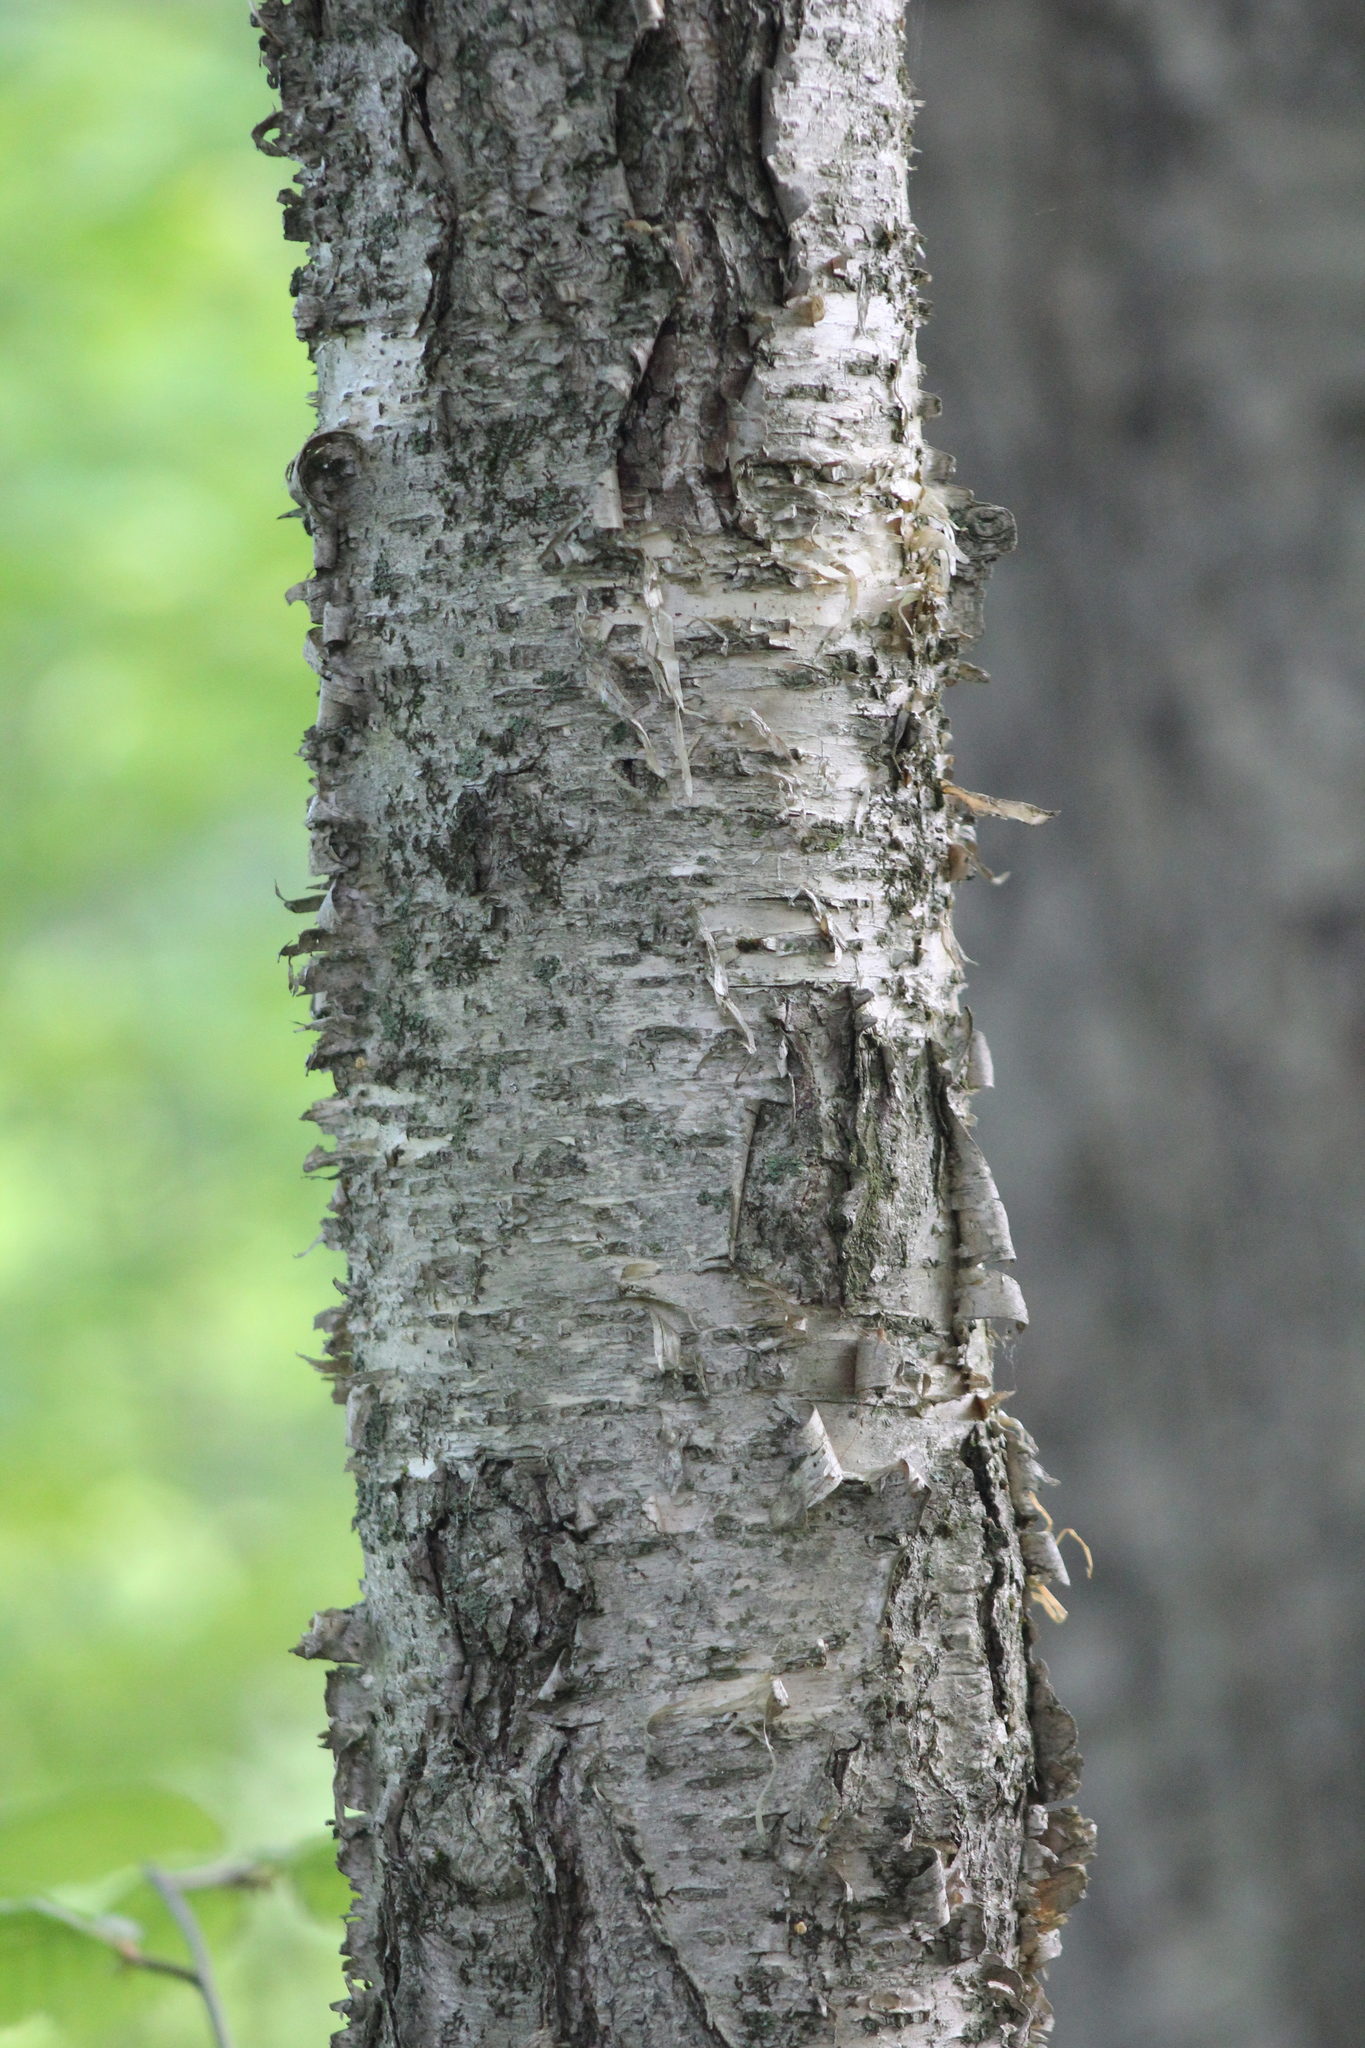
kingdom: Plantae
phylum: Tracheophyta
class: Magnoliopsida
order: Fagales
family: Betulaceae
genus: Betula
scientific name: Betula alleghaniensis
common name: Yellow birch
